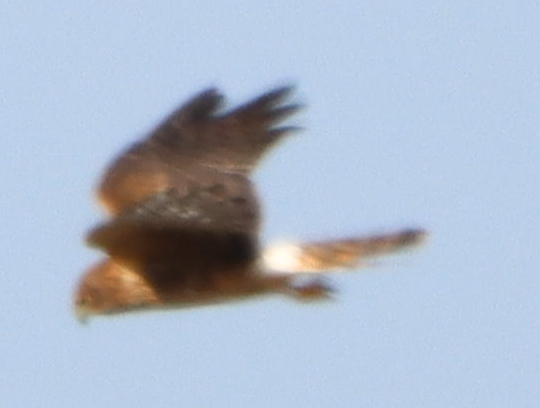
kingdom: Animalia
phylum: Chordata
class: Aves
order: Accipitriformes
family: Accipitridae
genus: Circus
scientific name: Circus cyaneus
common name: Hen harrier
